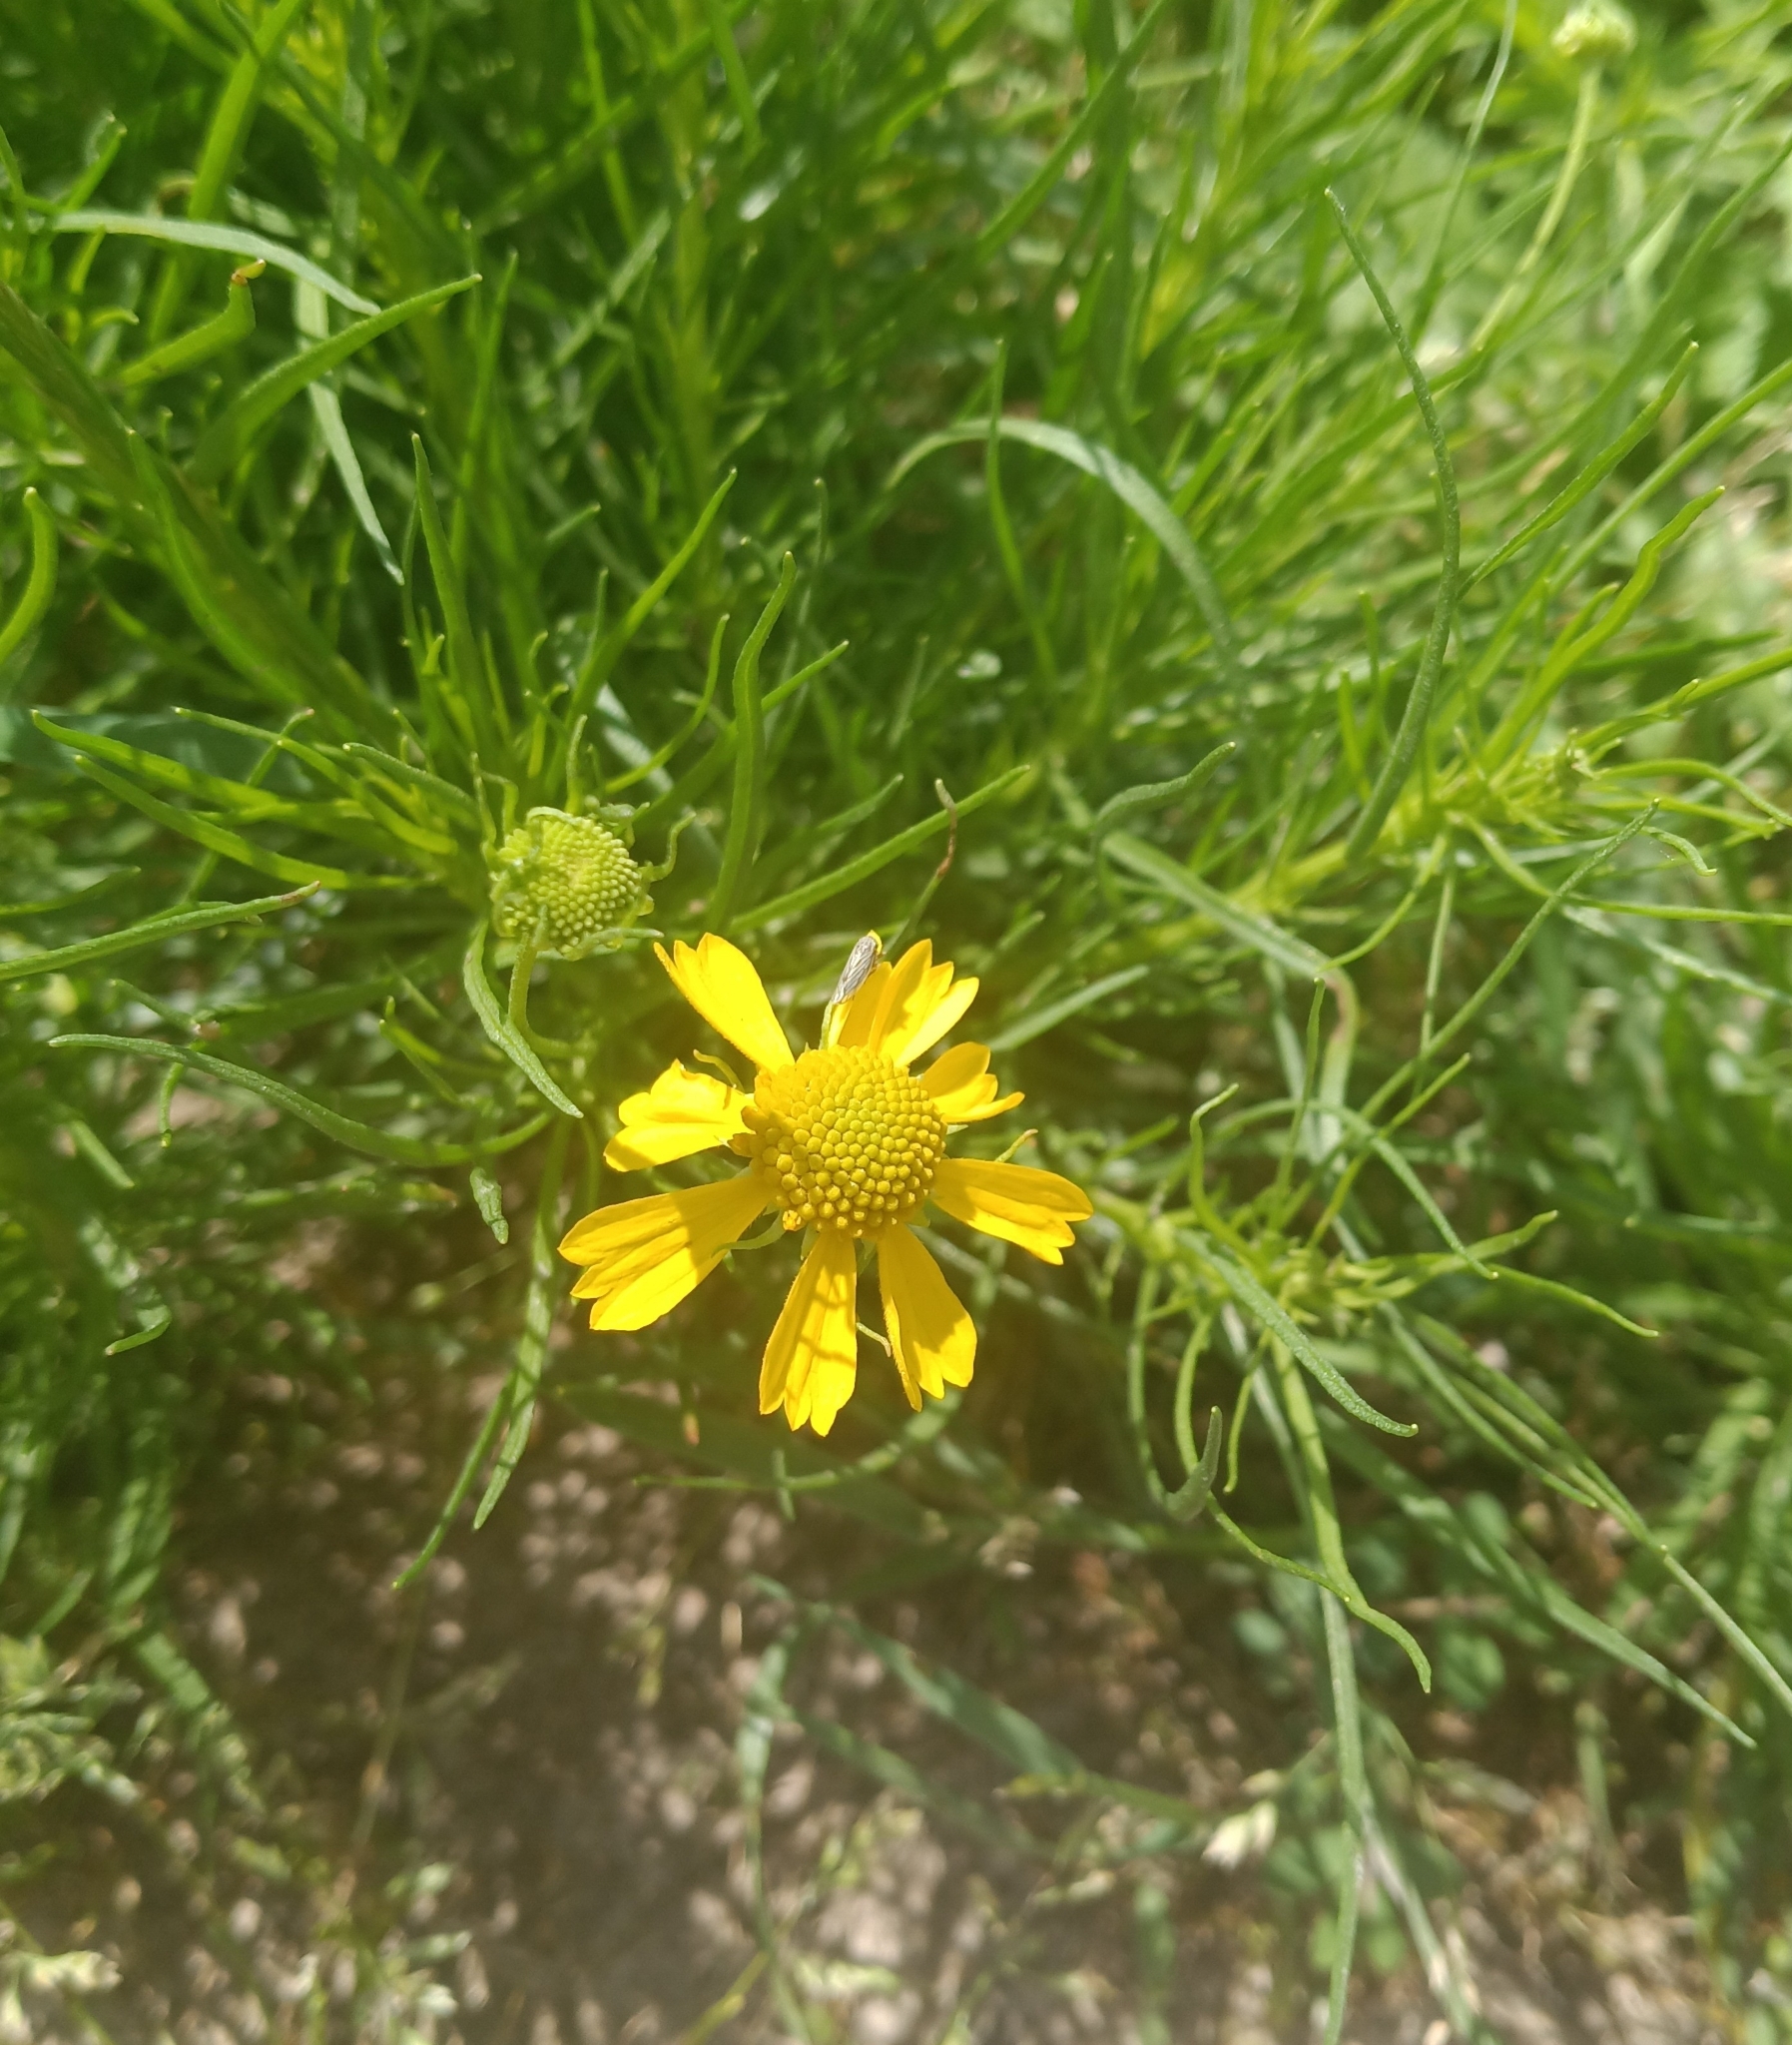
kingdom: Plantae
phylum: Tracheophyta
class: Magnoliopsida
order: Asterales
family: Asteraceae
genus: Helenium
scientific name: Helenium amarum
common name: Bitter sneezeweed
